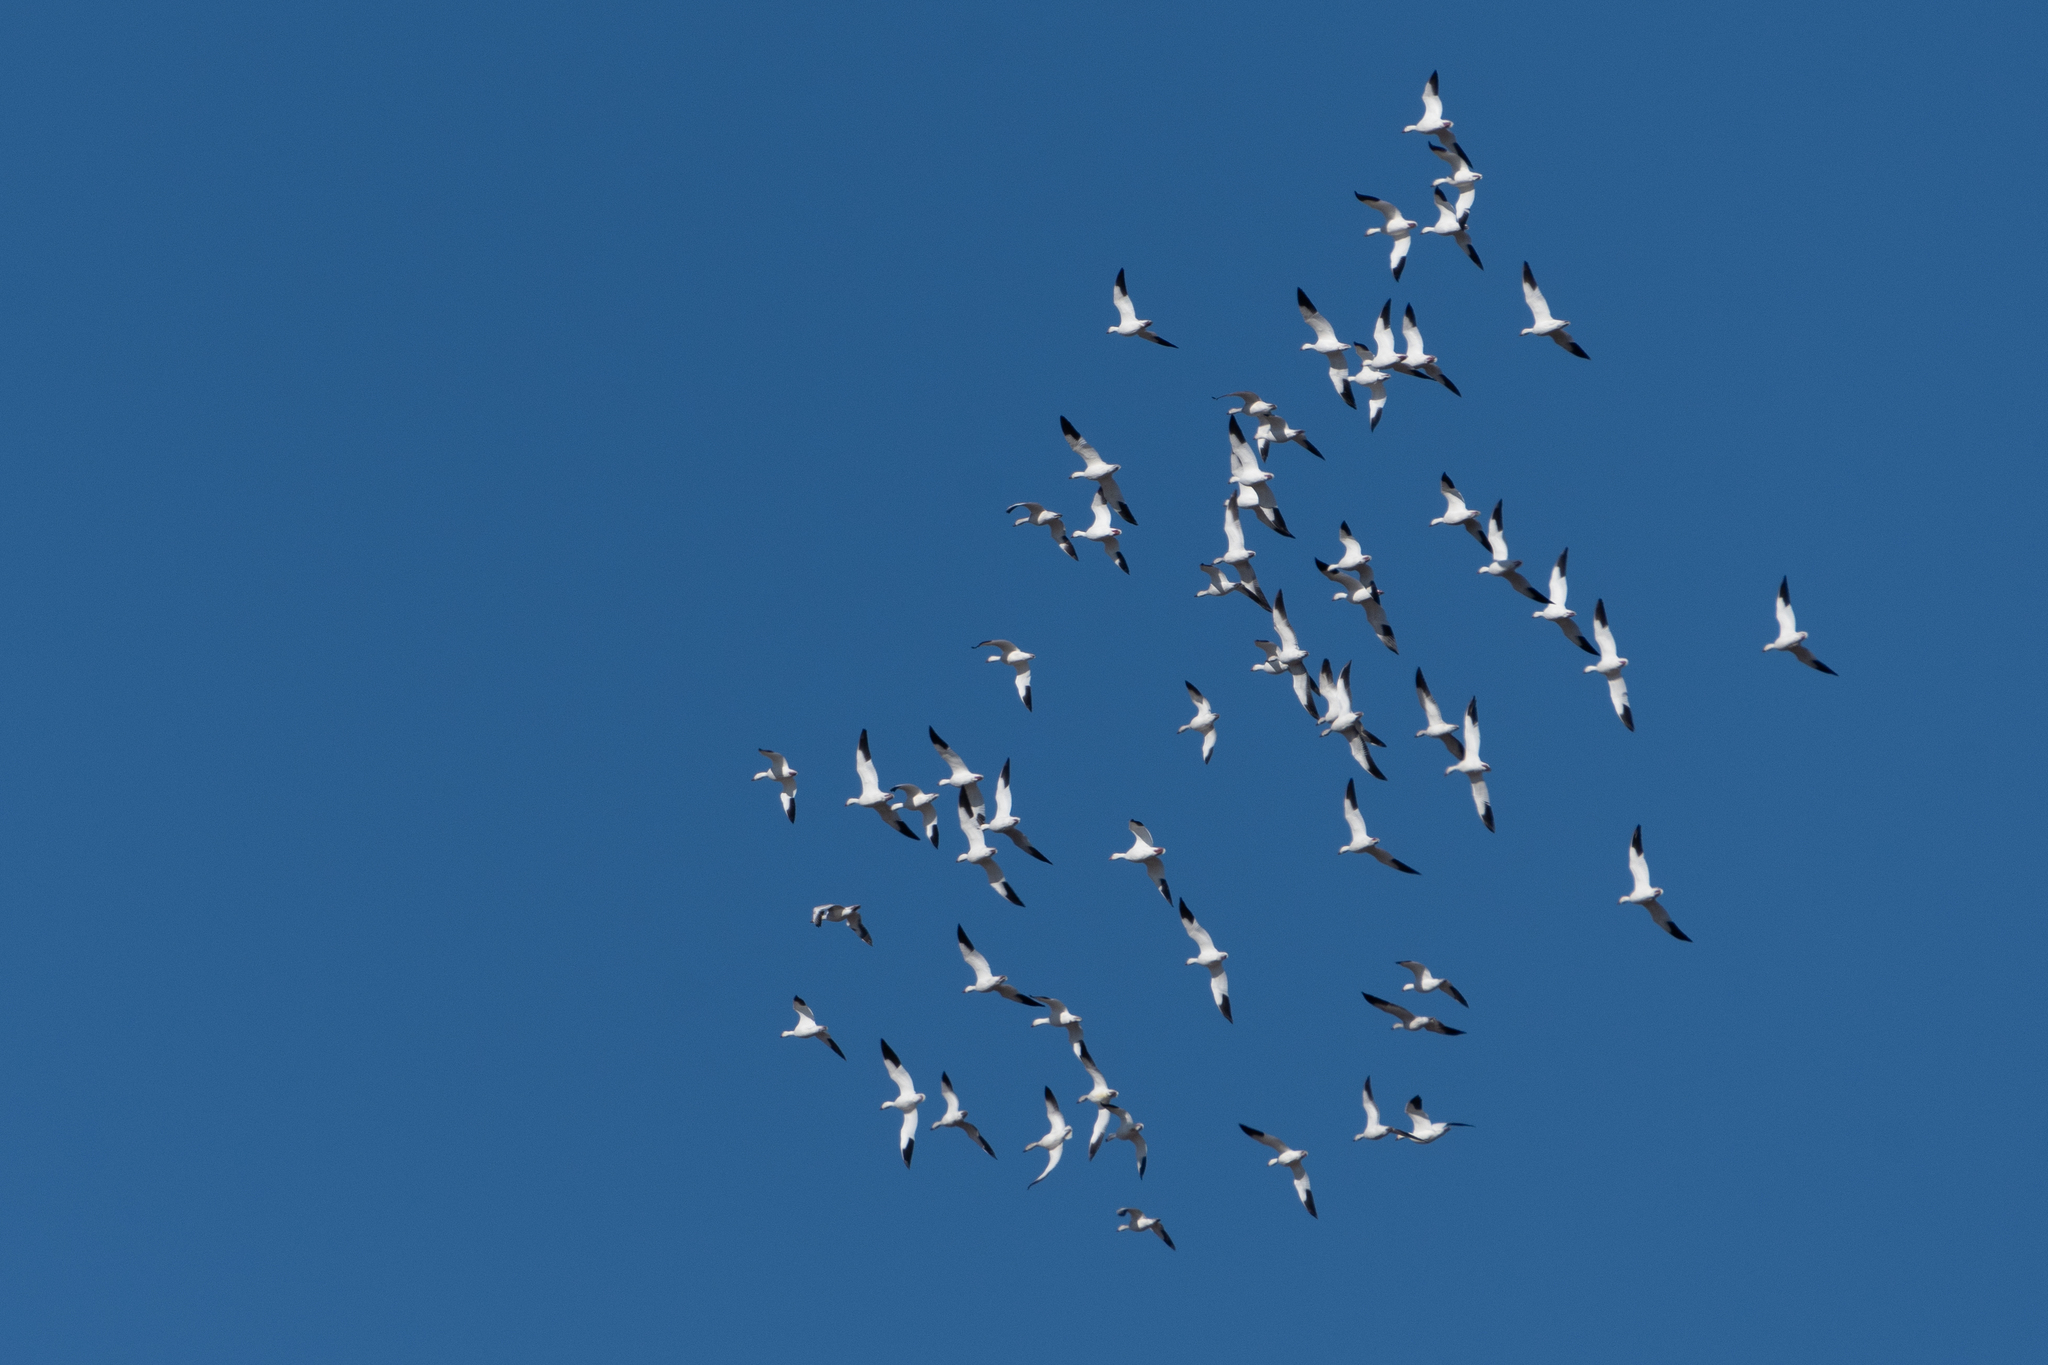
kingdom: Animalia
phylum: Chordata
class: Aves
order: Anseriformes
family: Anatidae
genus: Anser
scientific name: Anser caerulescens
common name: Snow goose
